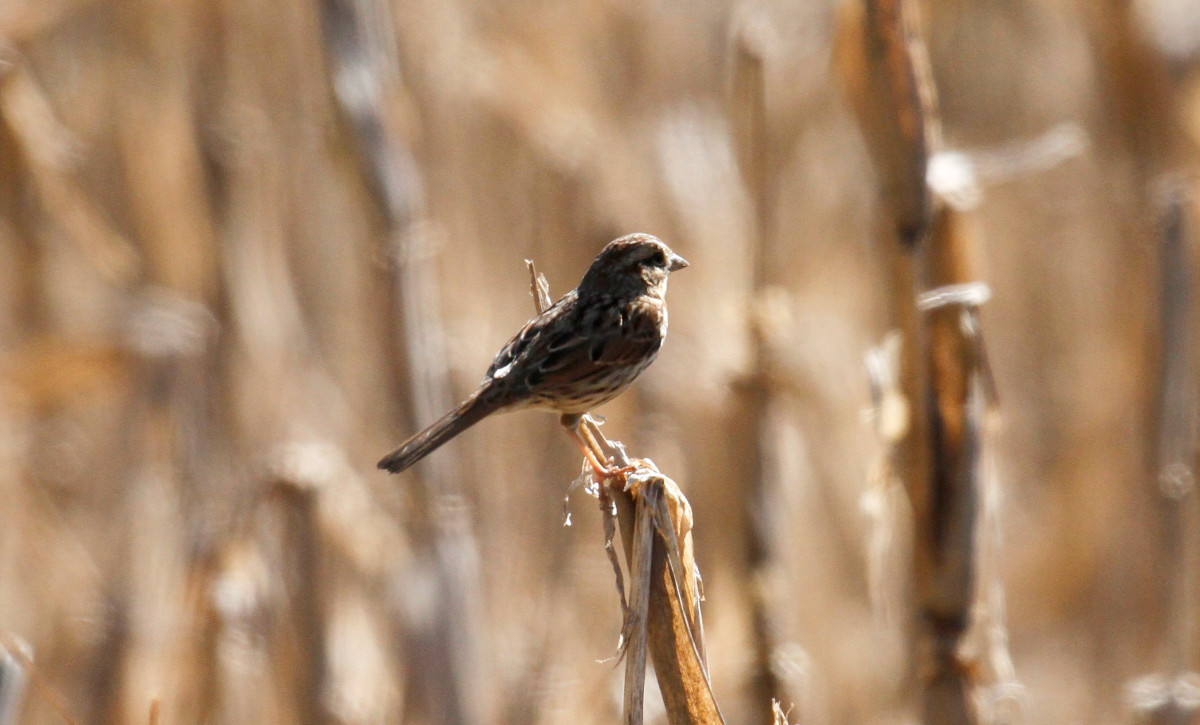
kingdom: Animalia
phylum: Chordata
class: Aves
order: Passeriformes
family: Passerellidae
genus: Melospiza
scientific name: Melospiza melodia
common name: Song sparrow
